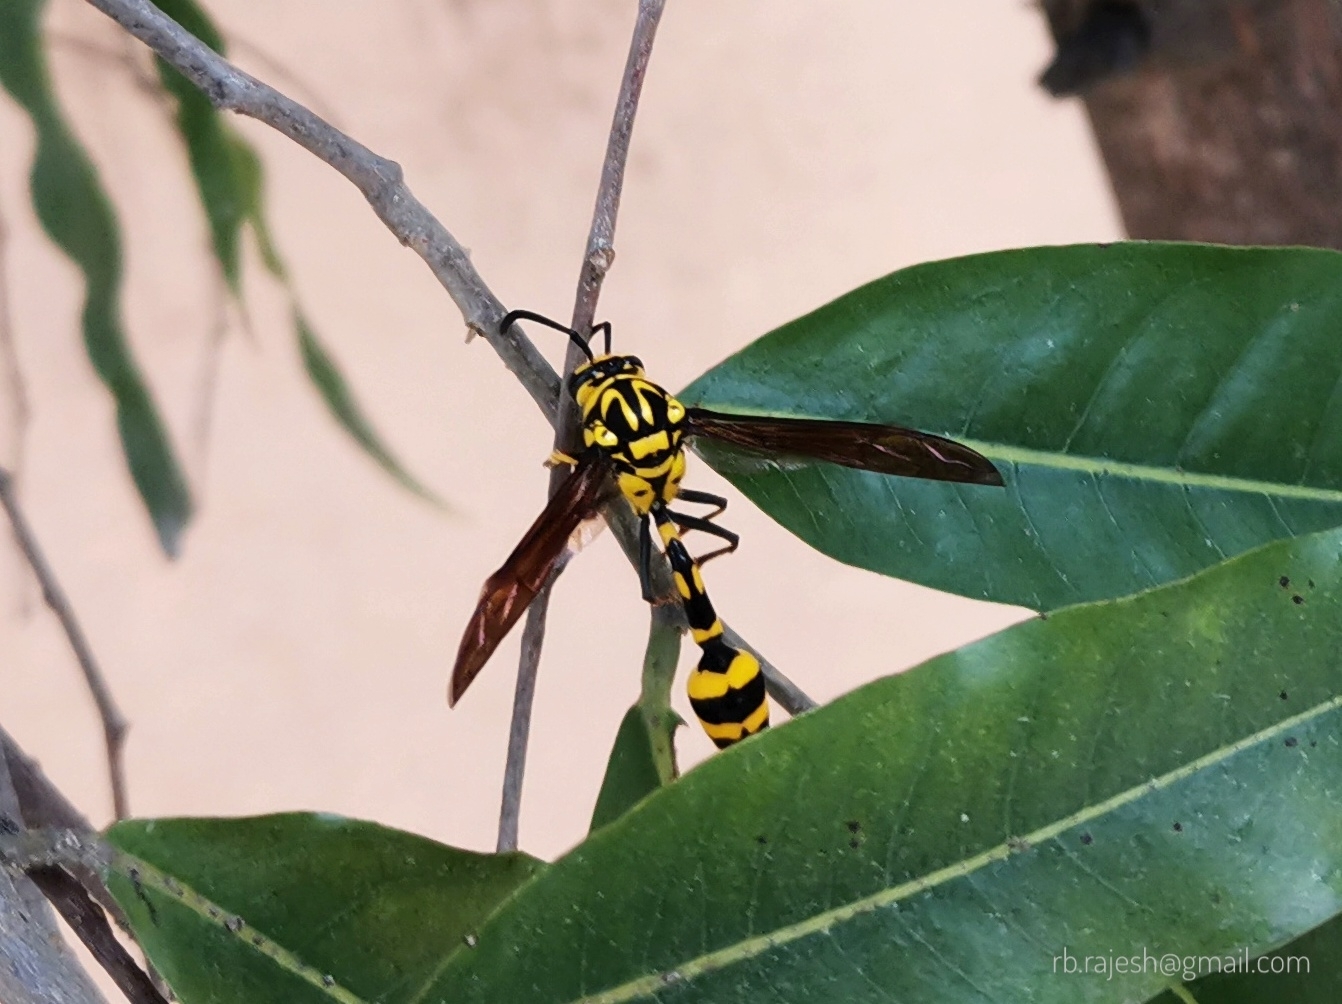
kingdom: Animalia
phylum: Arthropoda
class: Insecta
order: Hymenoptera
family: Eumenidae
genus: Phimenes
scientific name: Phimenes flavopictus
